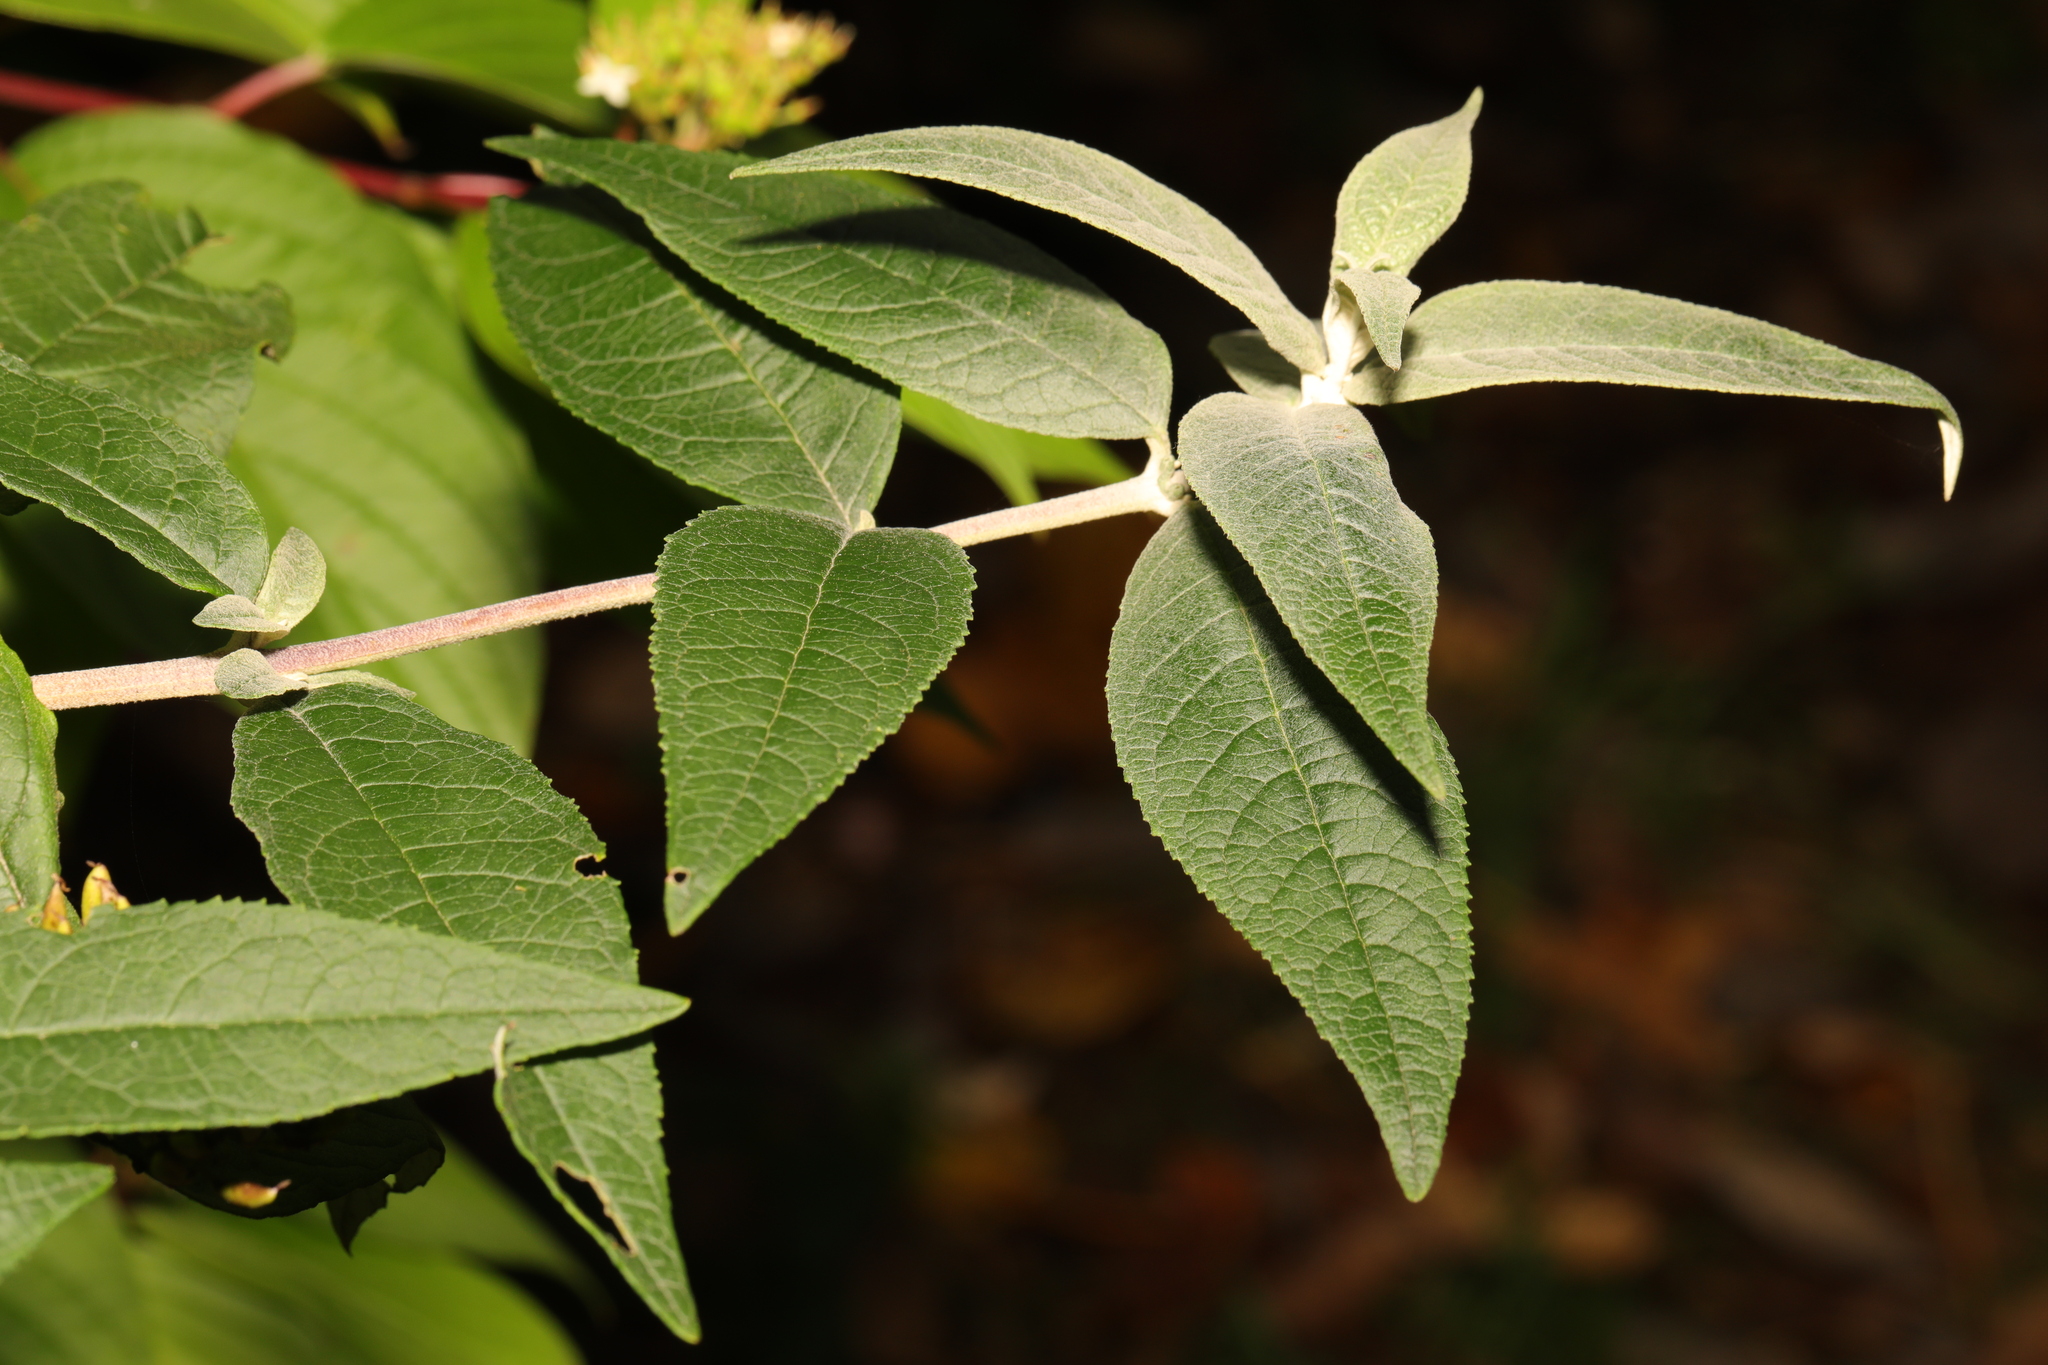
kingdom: Plantae
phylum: Tracheophyta
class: Magnoliopsida
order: Lamiales
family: Scrophulariaceae
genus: Buddleja
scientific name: Buddleja davidii
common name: Butterfly-bush
